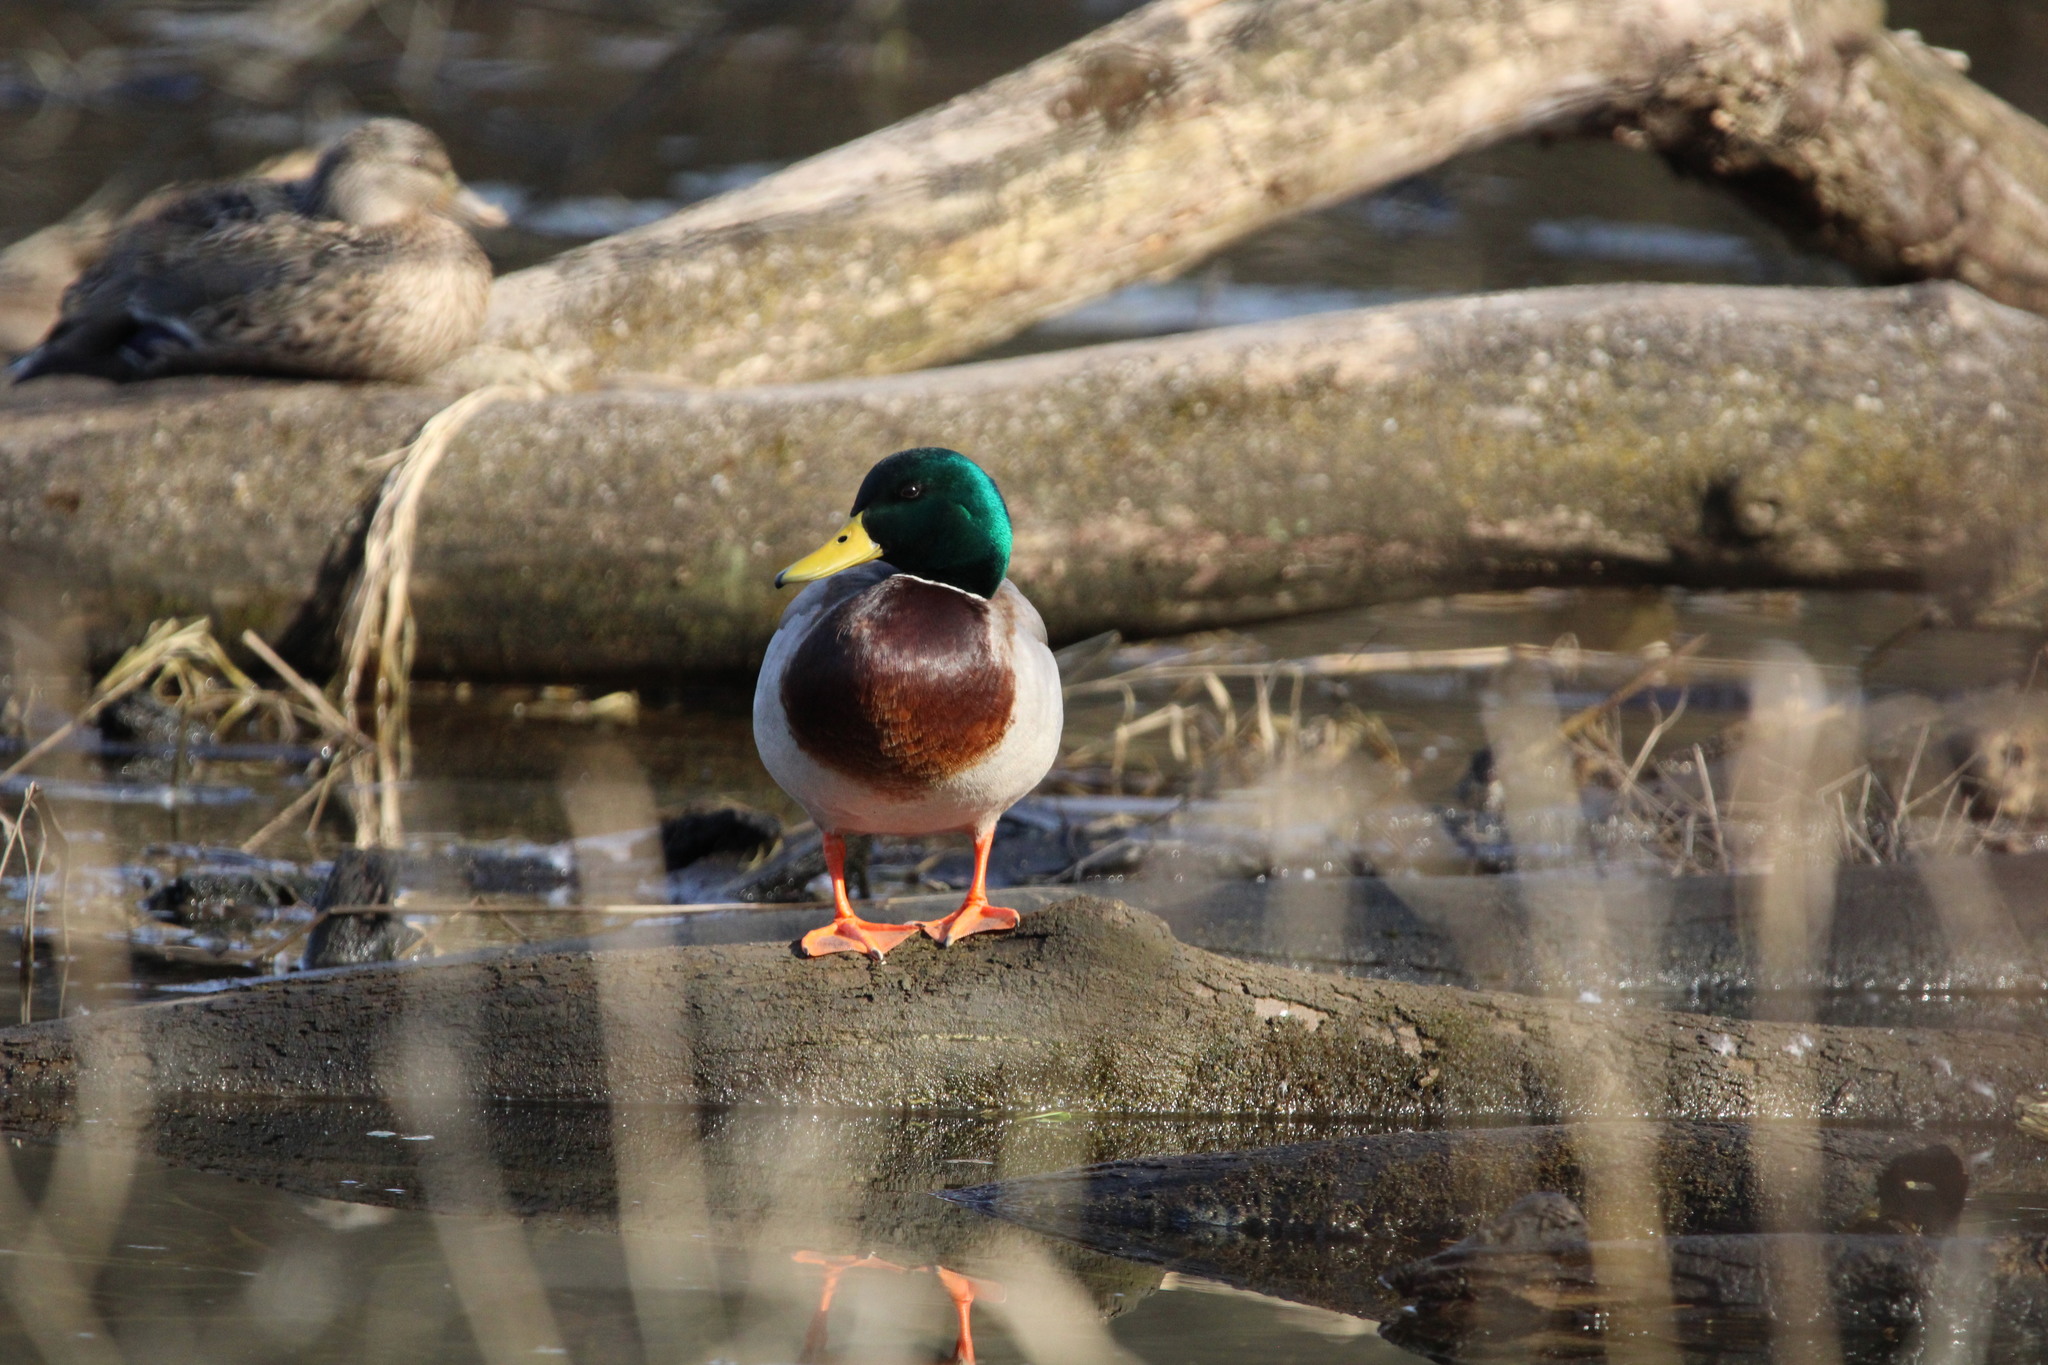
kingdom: Animalia
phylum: Chordata
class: Aves
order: Anseriformes
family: Anatidae
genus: Anas
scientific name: Anas platyrhynchos
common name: Mallard
